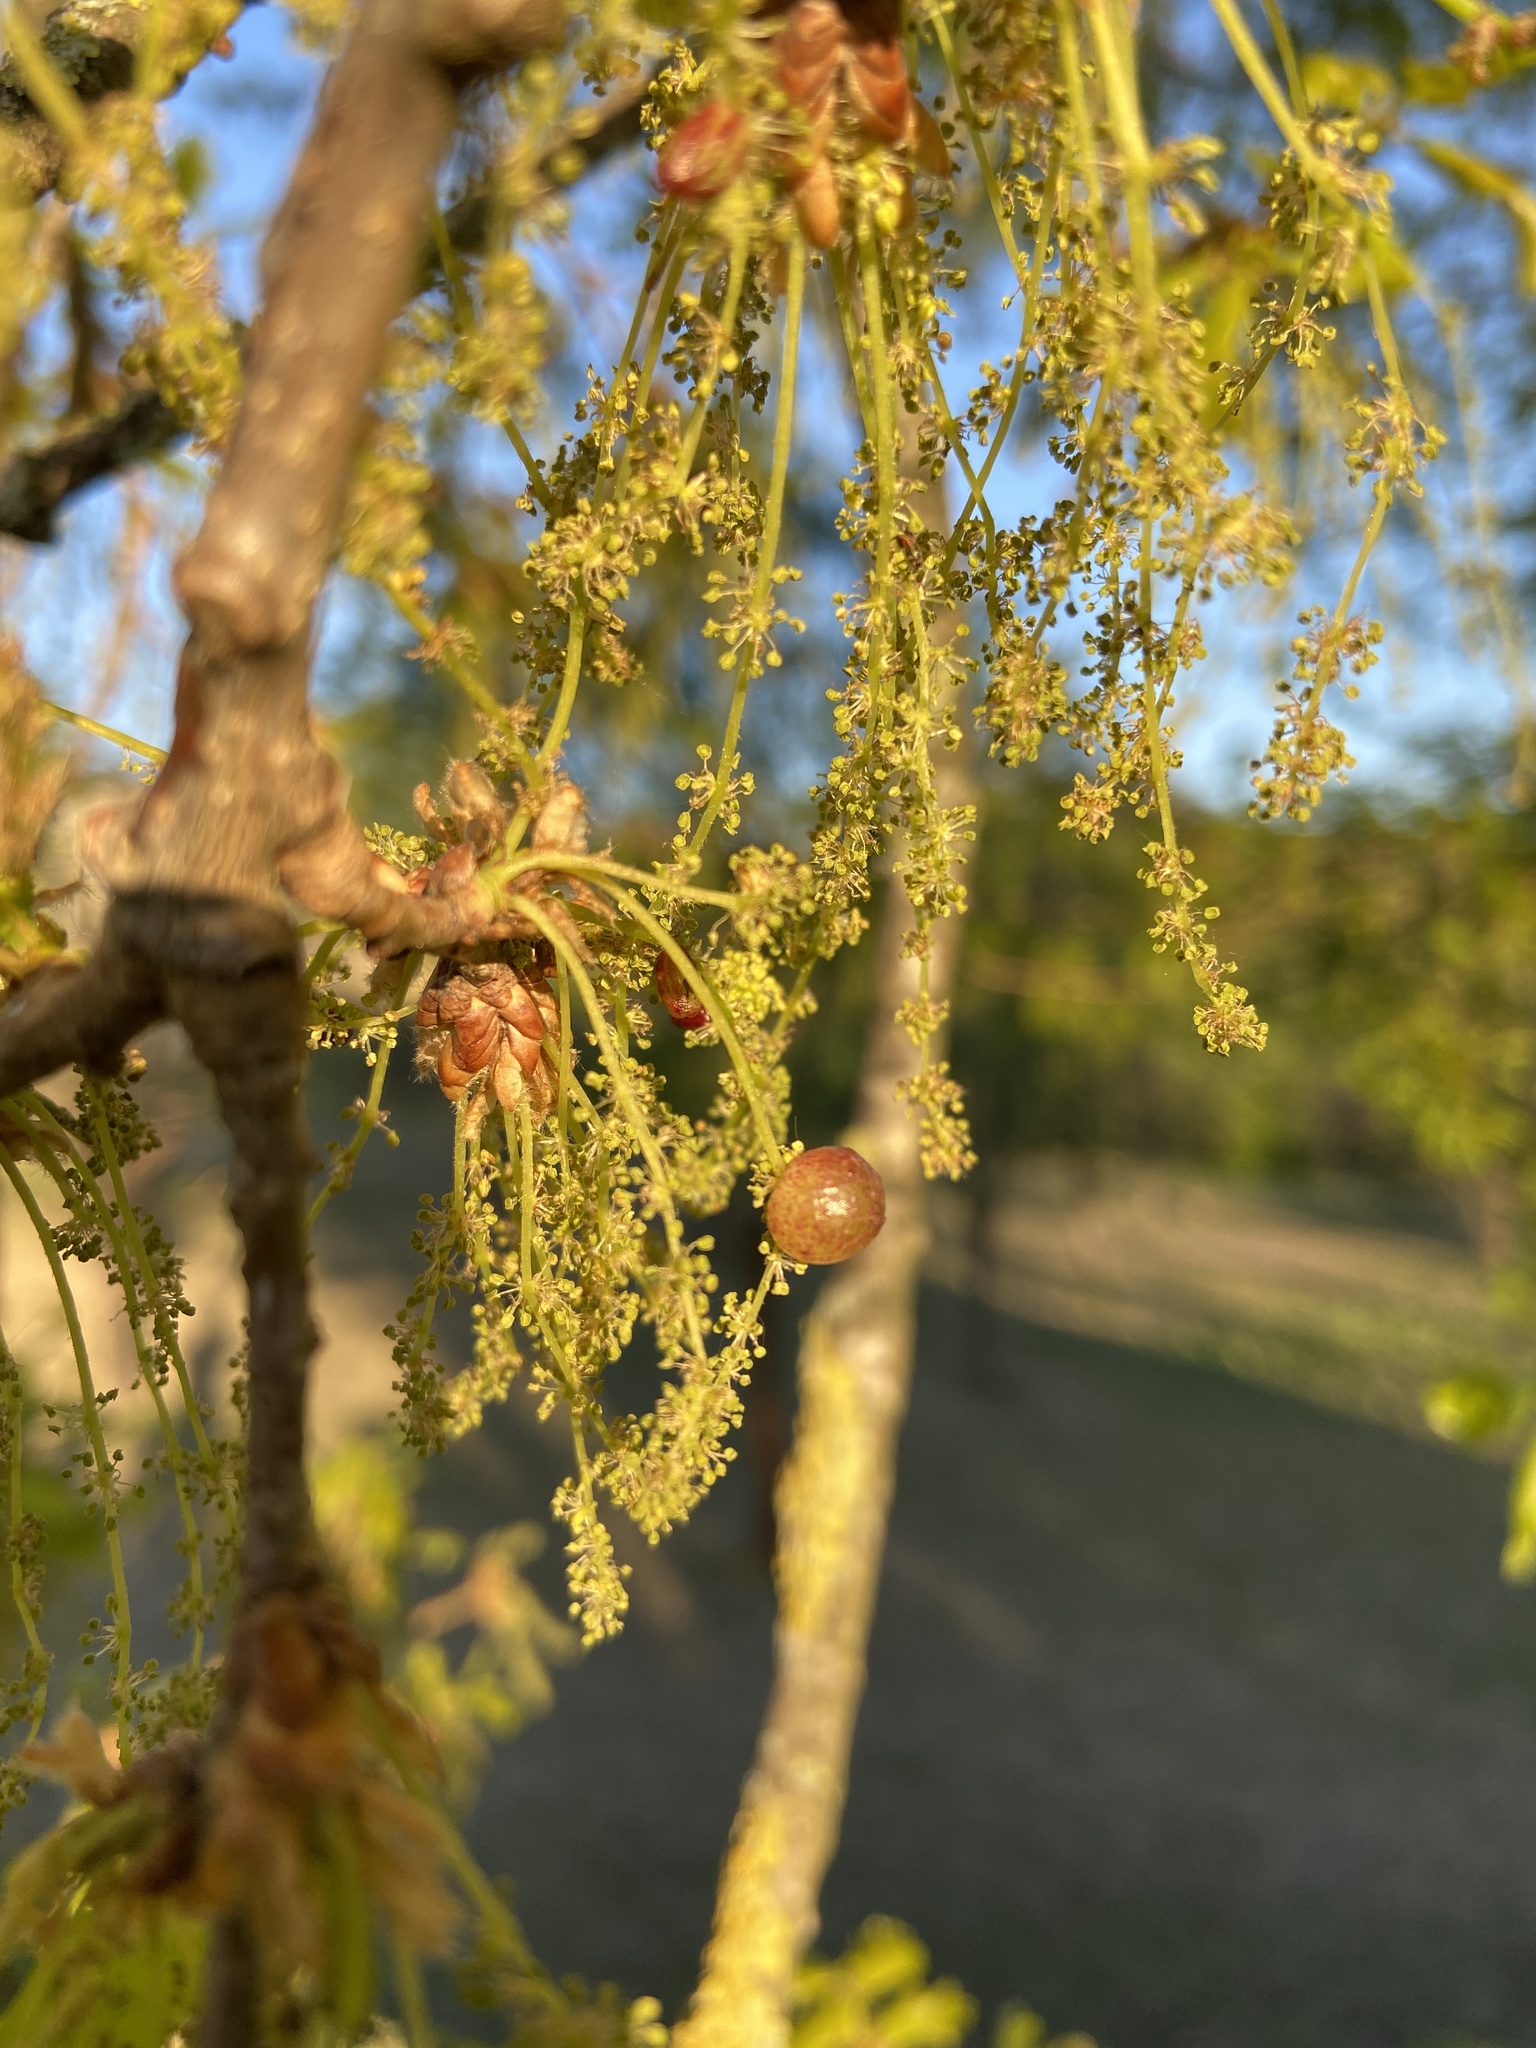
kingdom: Animalia
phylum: Arthropoda
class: Insecta
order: Hymenoptera
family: Cynipidae
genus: Neuroterus
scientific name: Neuroterus quercusbaccarum
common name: Common spangle gall
